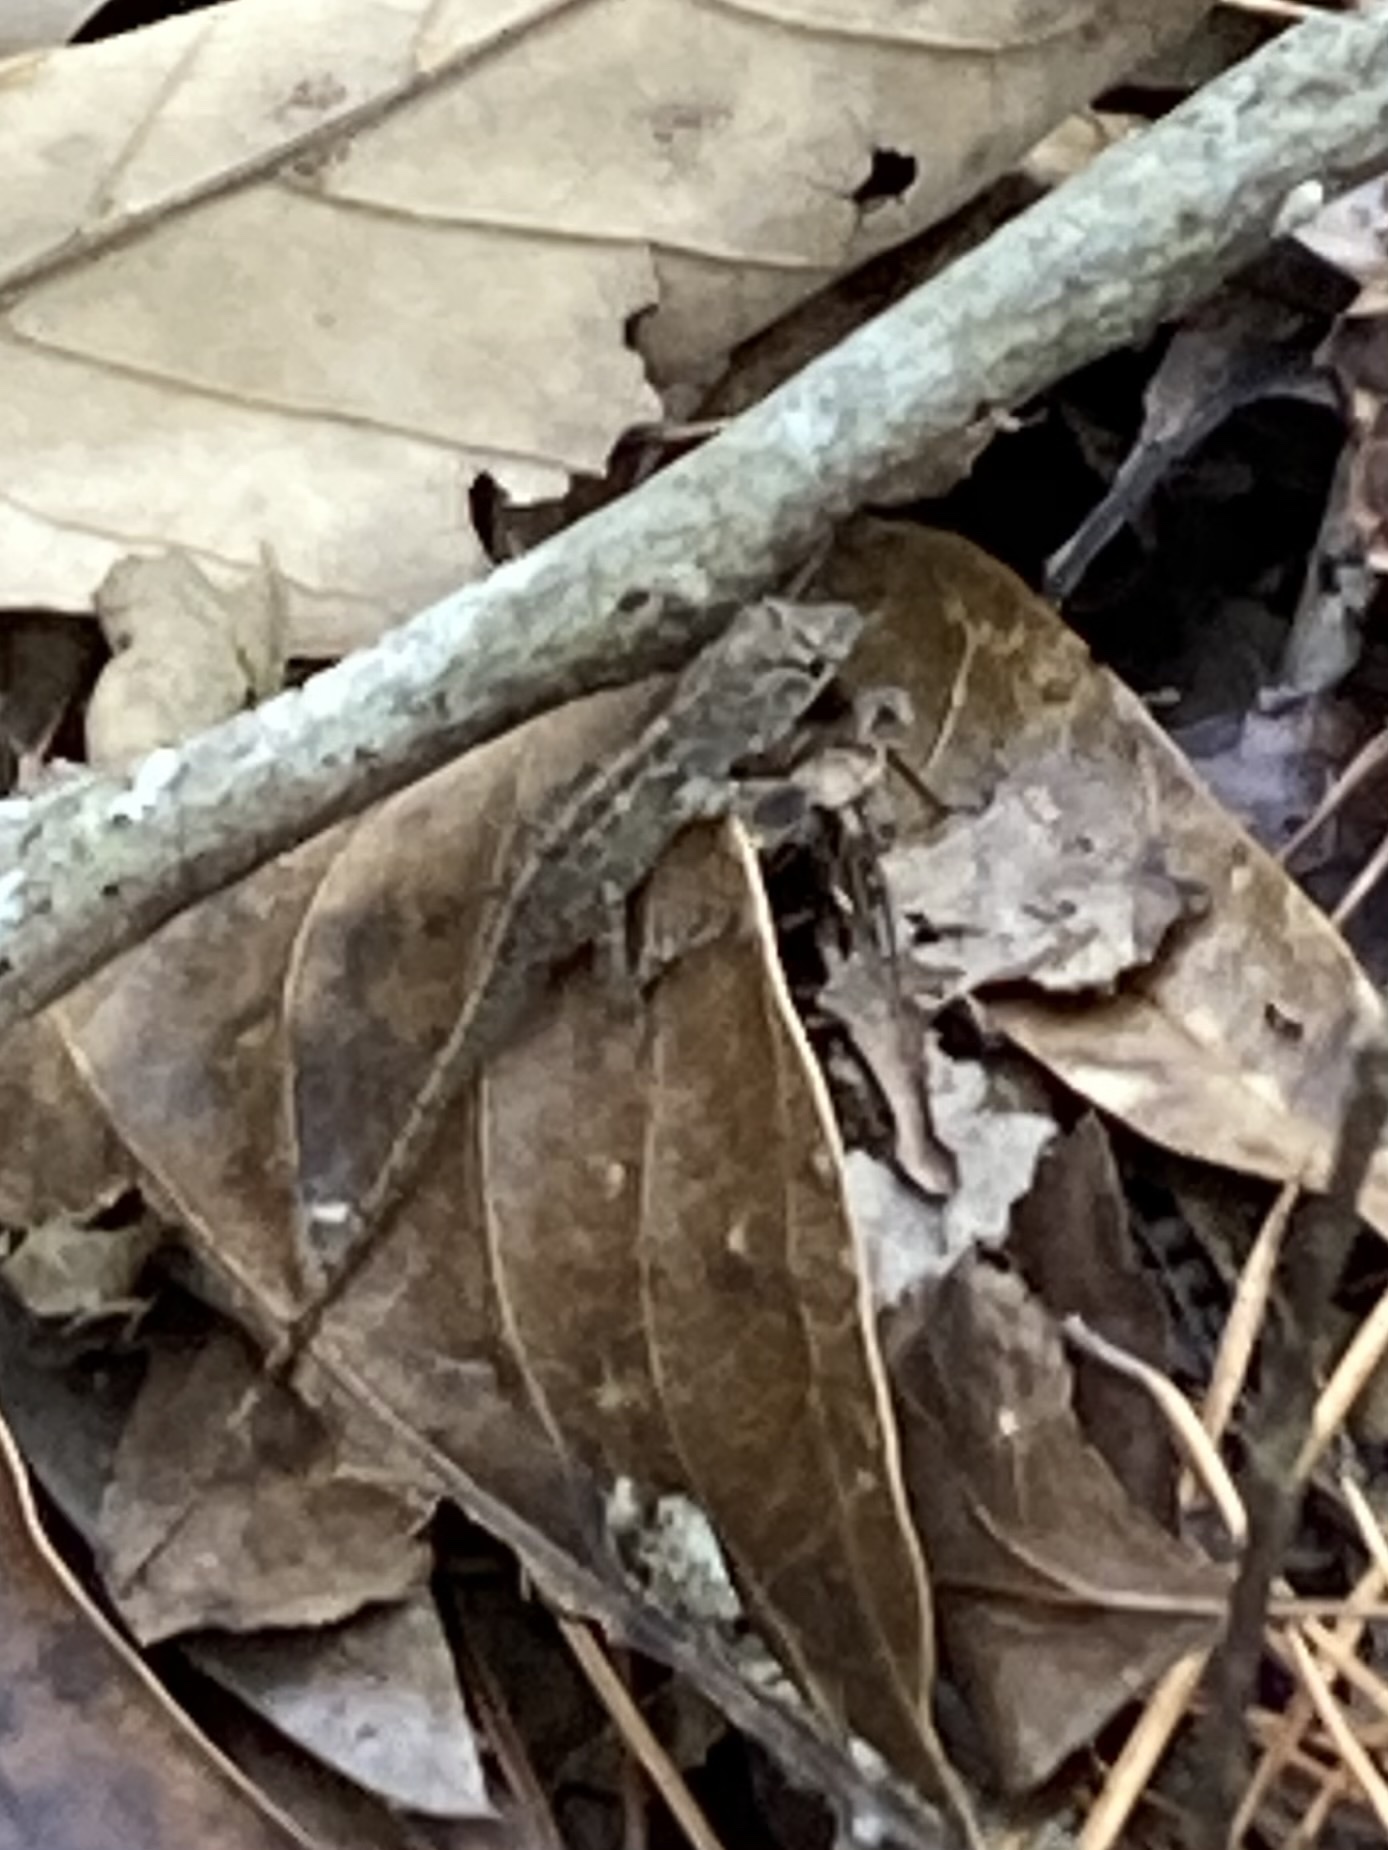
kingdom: Animalia
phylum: Chordata
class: Squamata
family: Dactyloidae
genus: Anolis
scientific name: Anolis sagrei
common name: Brown anole
